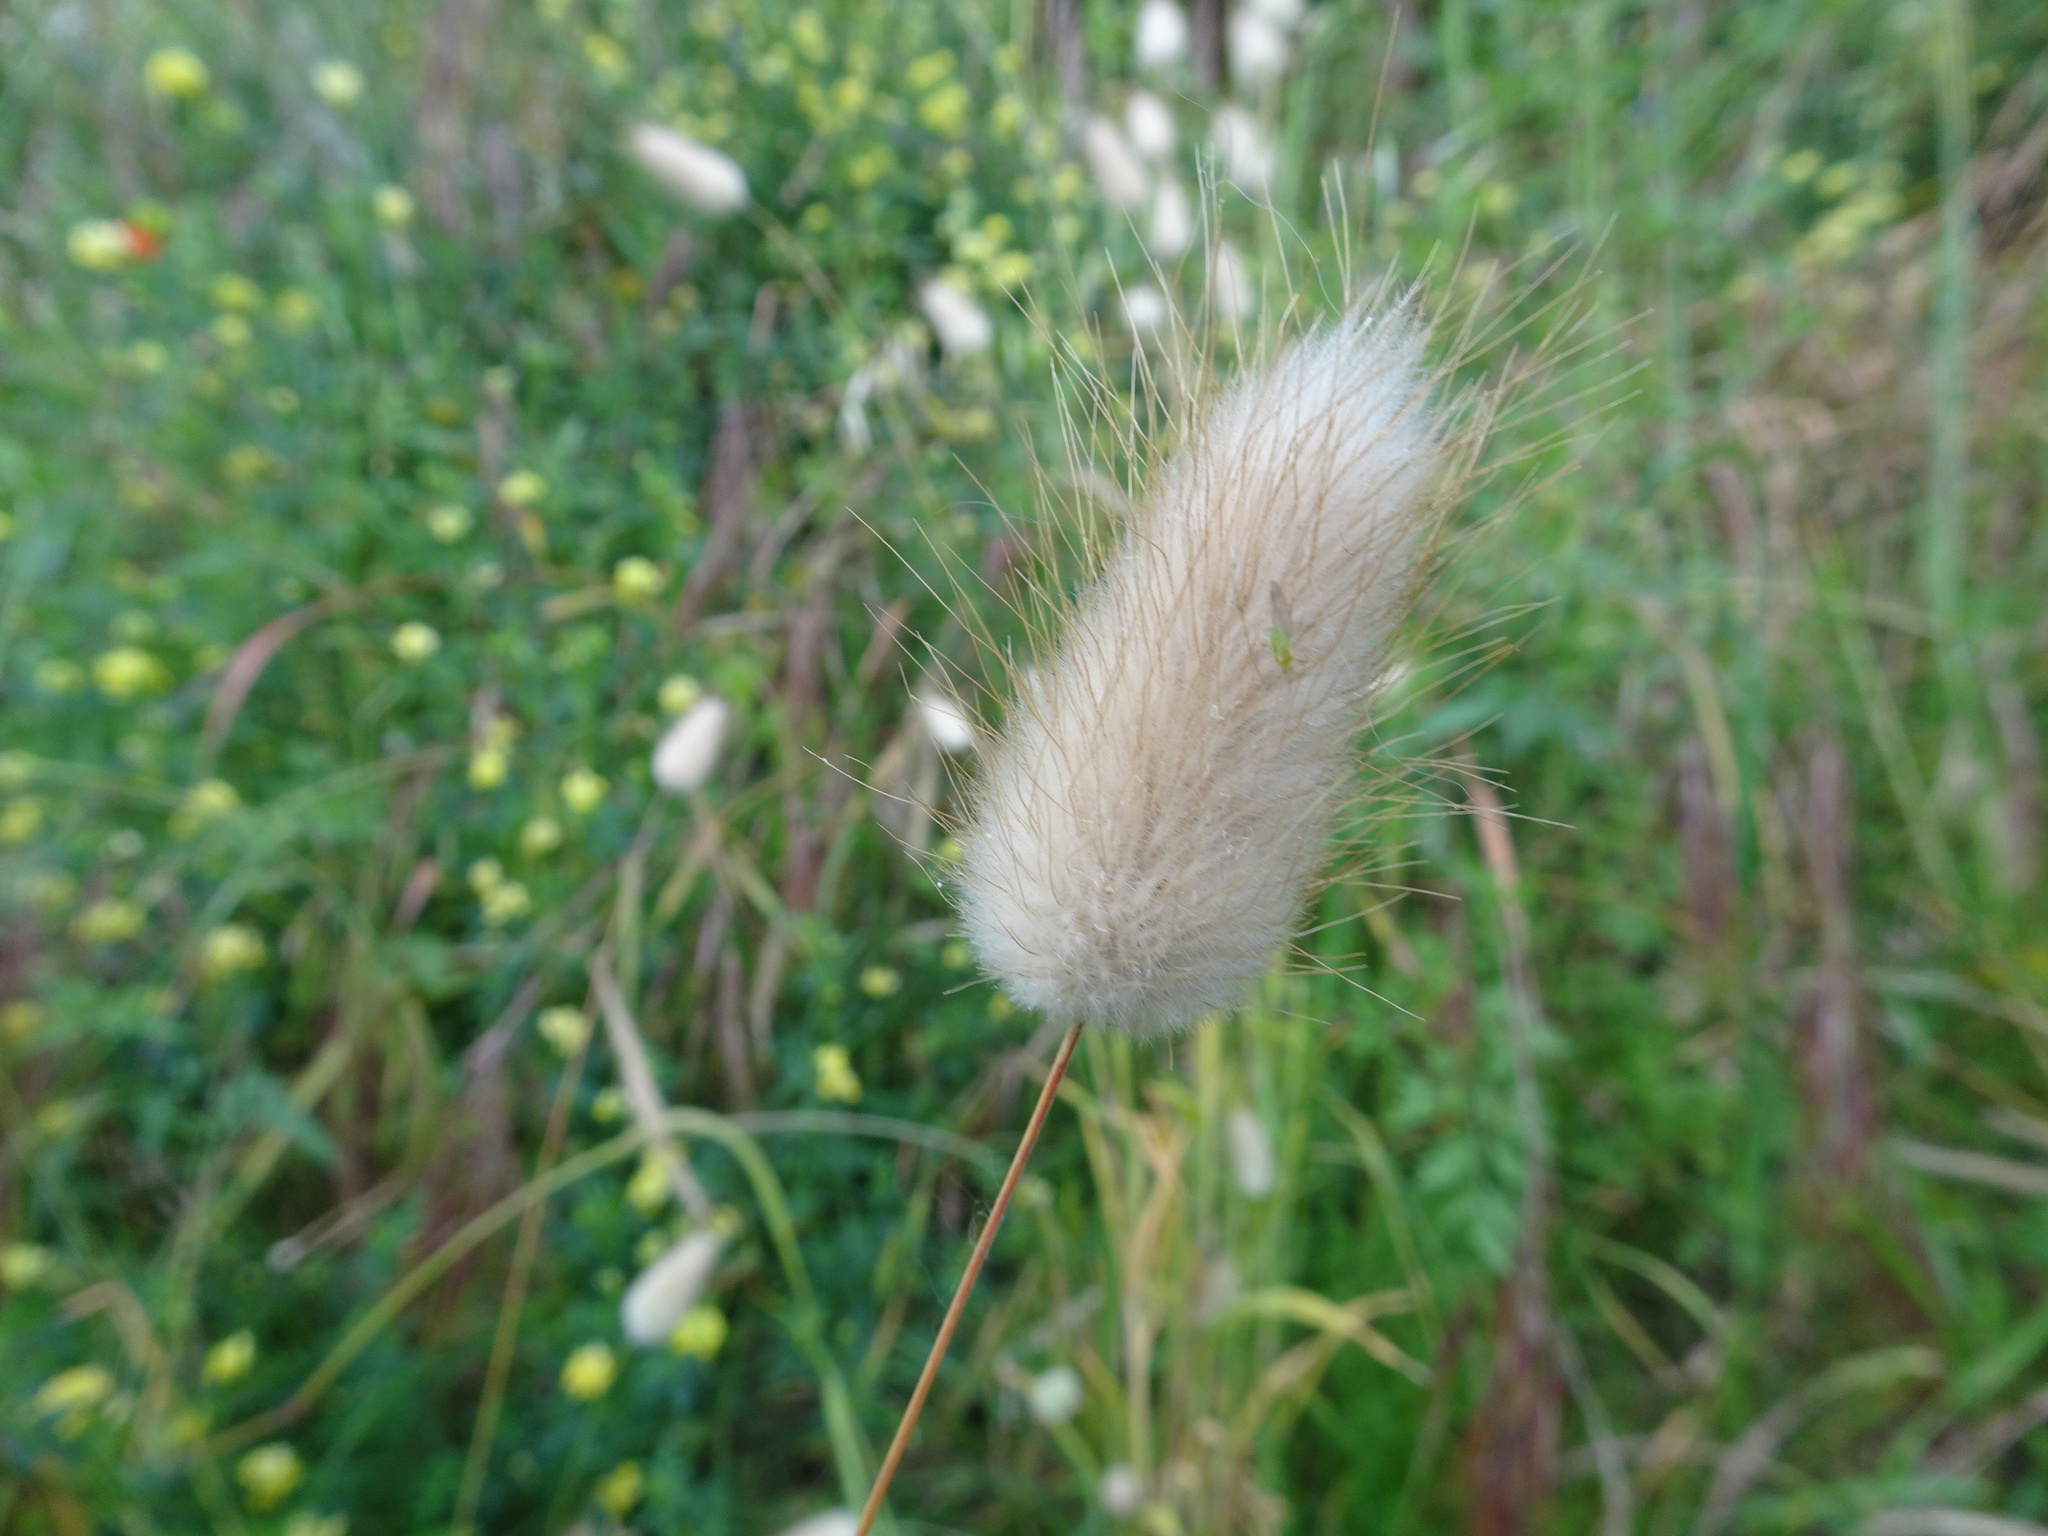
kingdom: Plantae
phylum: Tracheophyta
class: Liliopsida
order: Poales
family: Poaceae
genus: Lagurus
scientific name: Lagurus ovatus
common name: Hare's-tail
